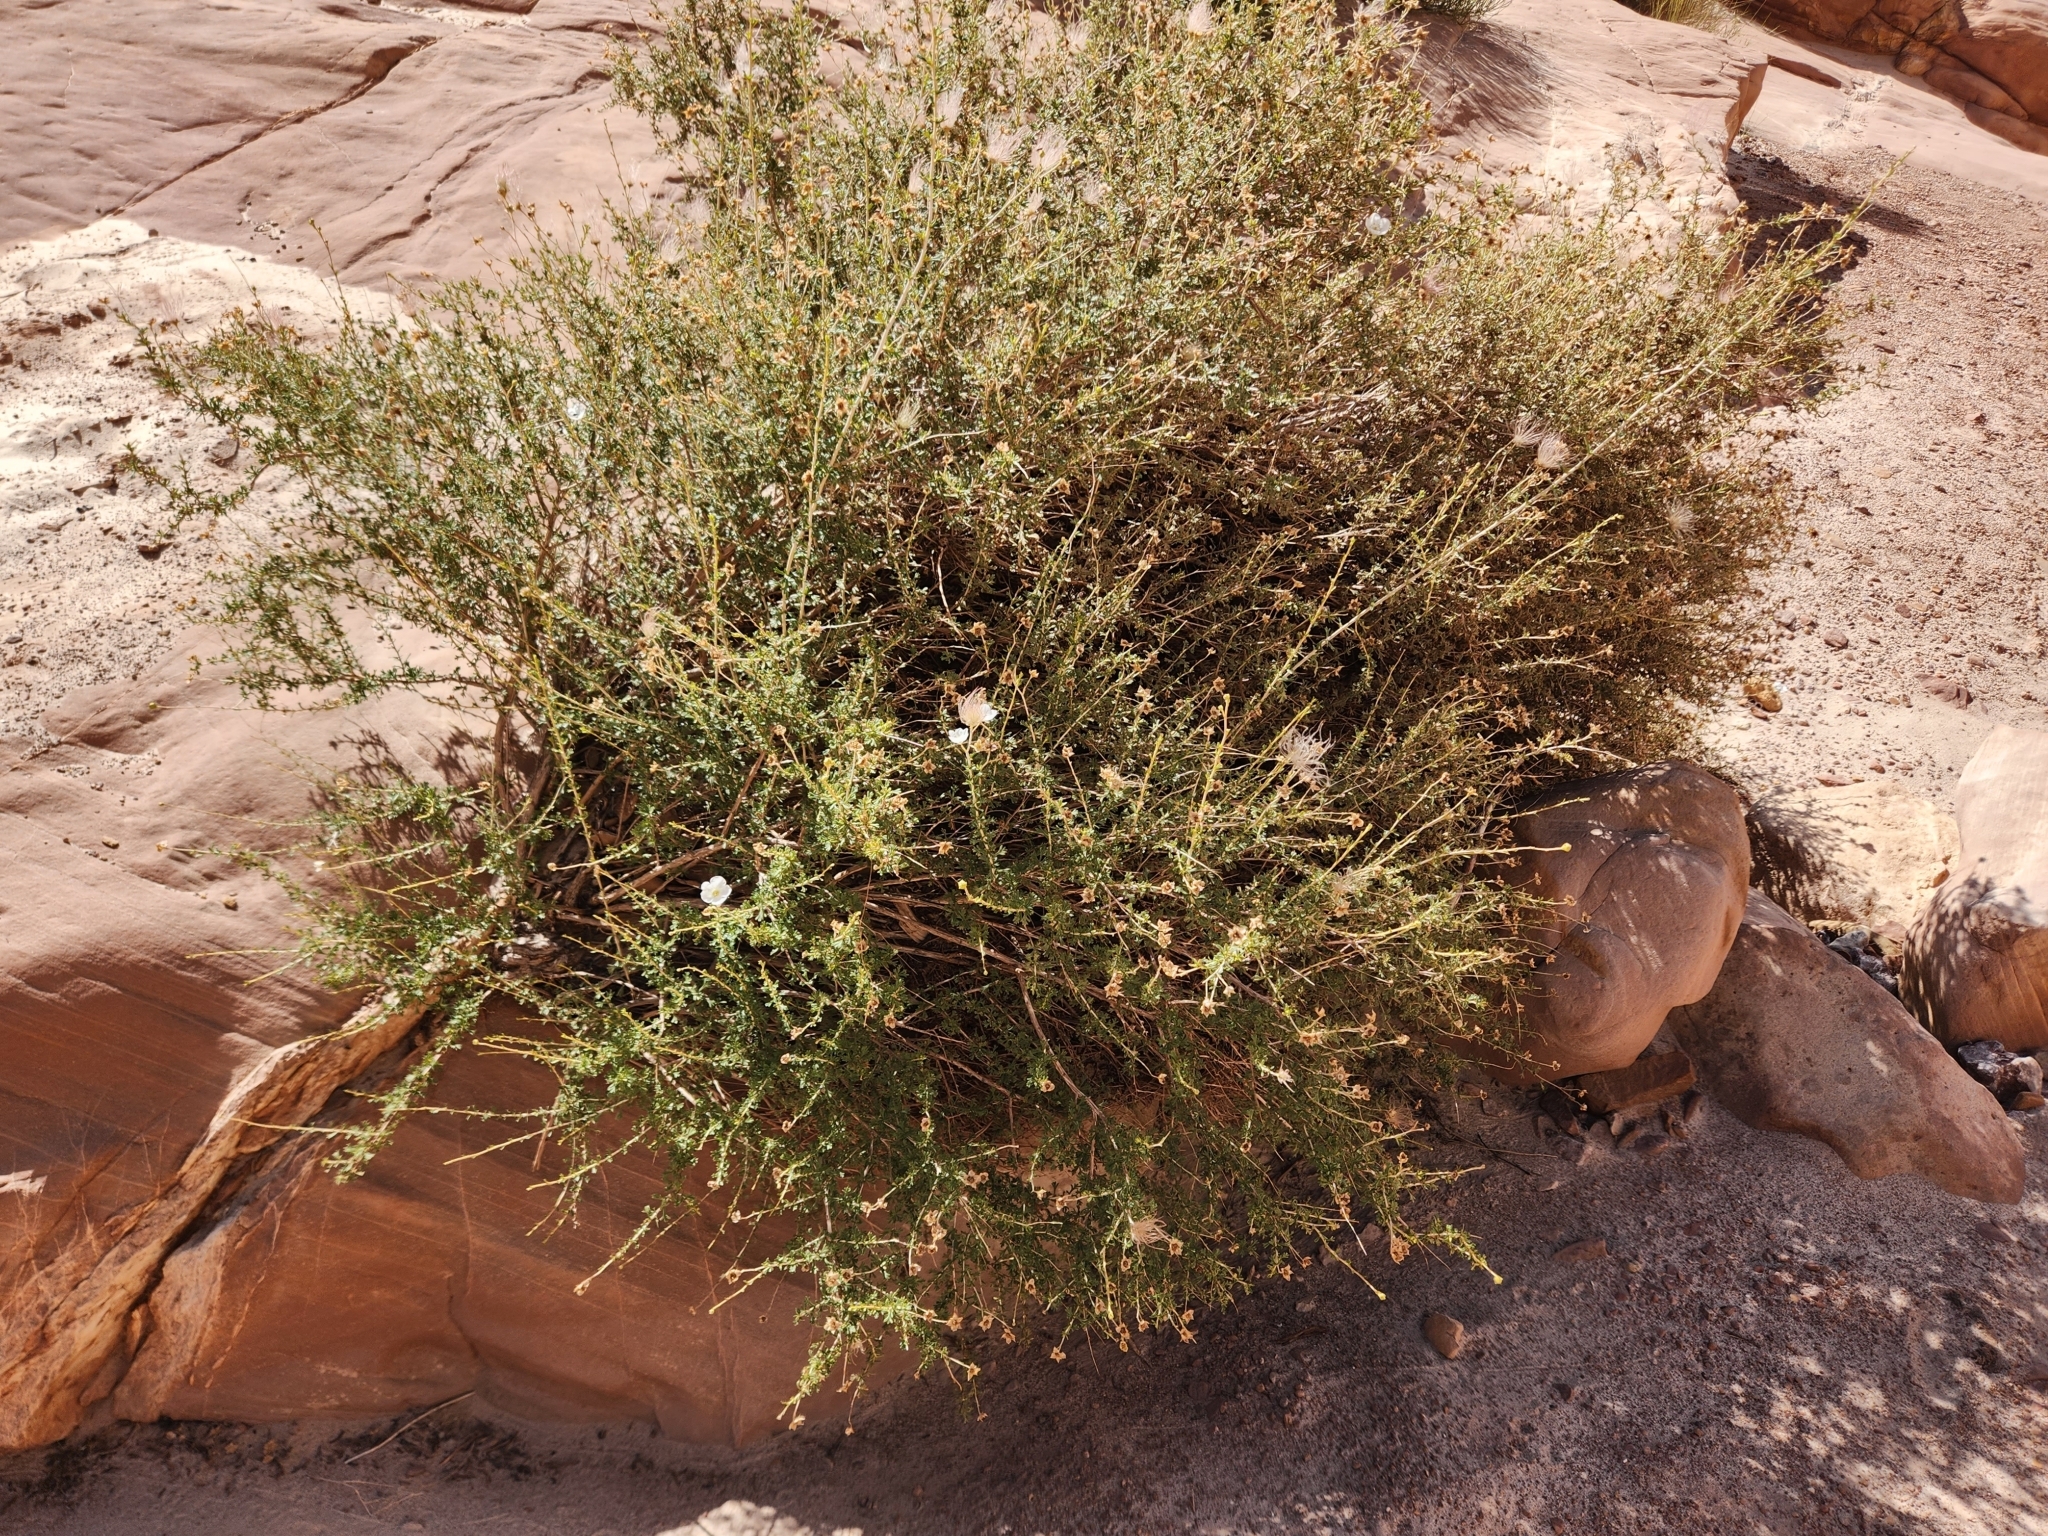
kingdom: Plantae
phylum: Tracheophyta
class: Magnoliopsida
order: Rosales
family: Rosaceae
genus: Fallugia
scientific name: Fallugia paradoxa
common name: Apache-plume
